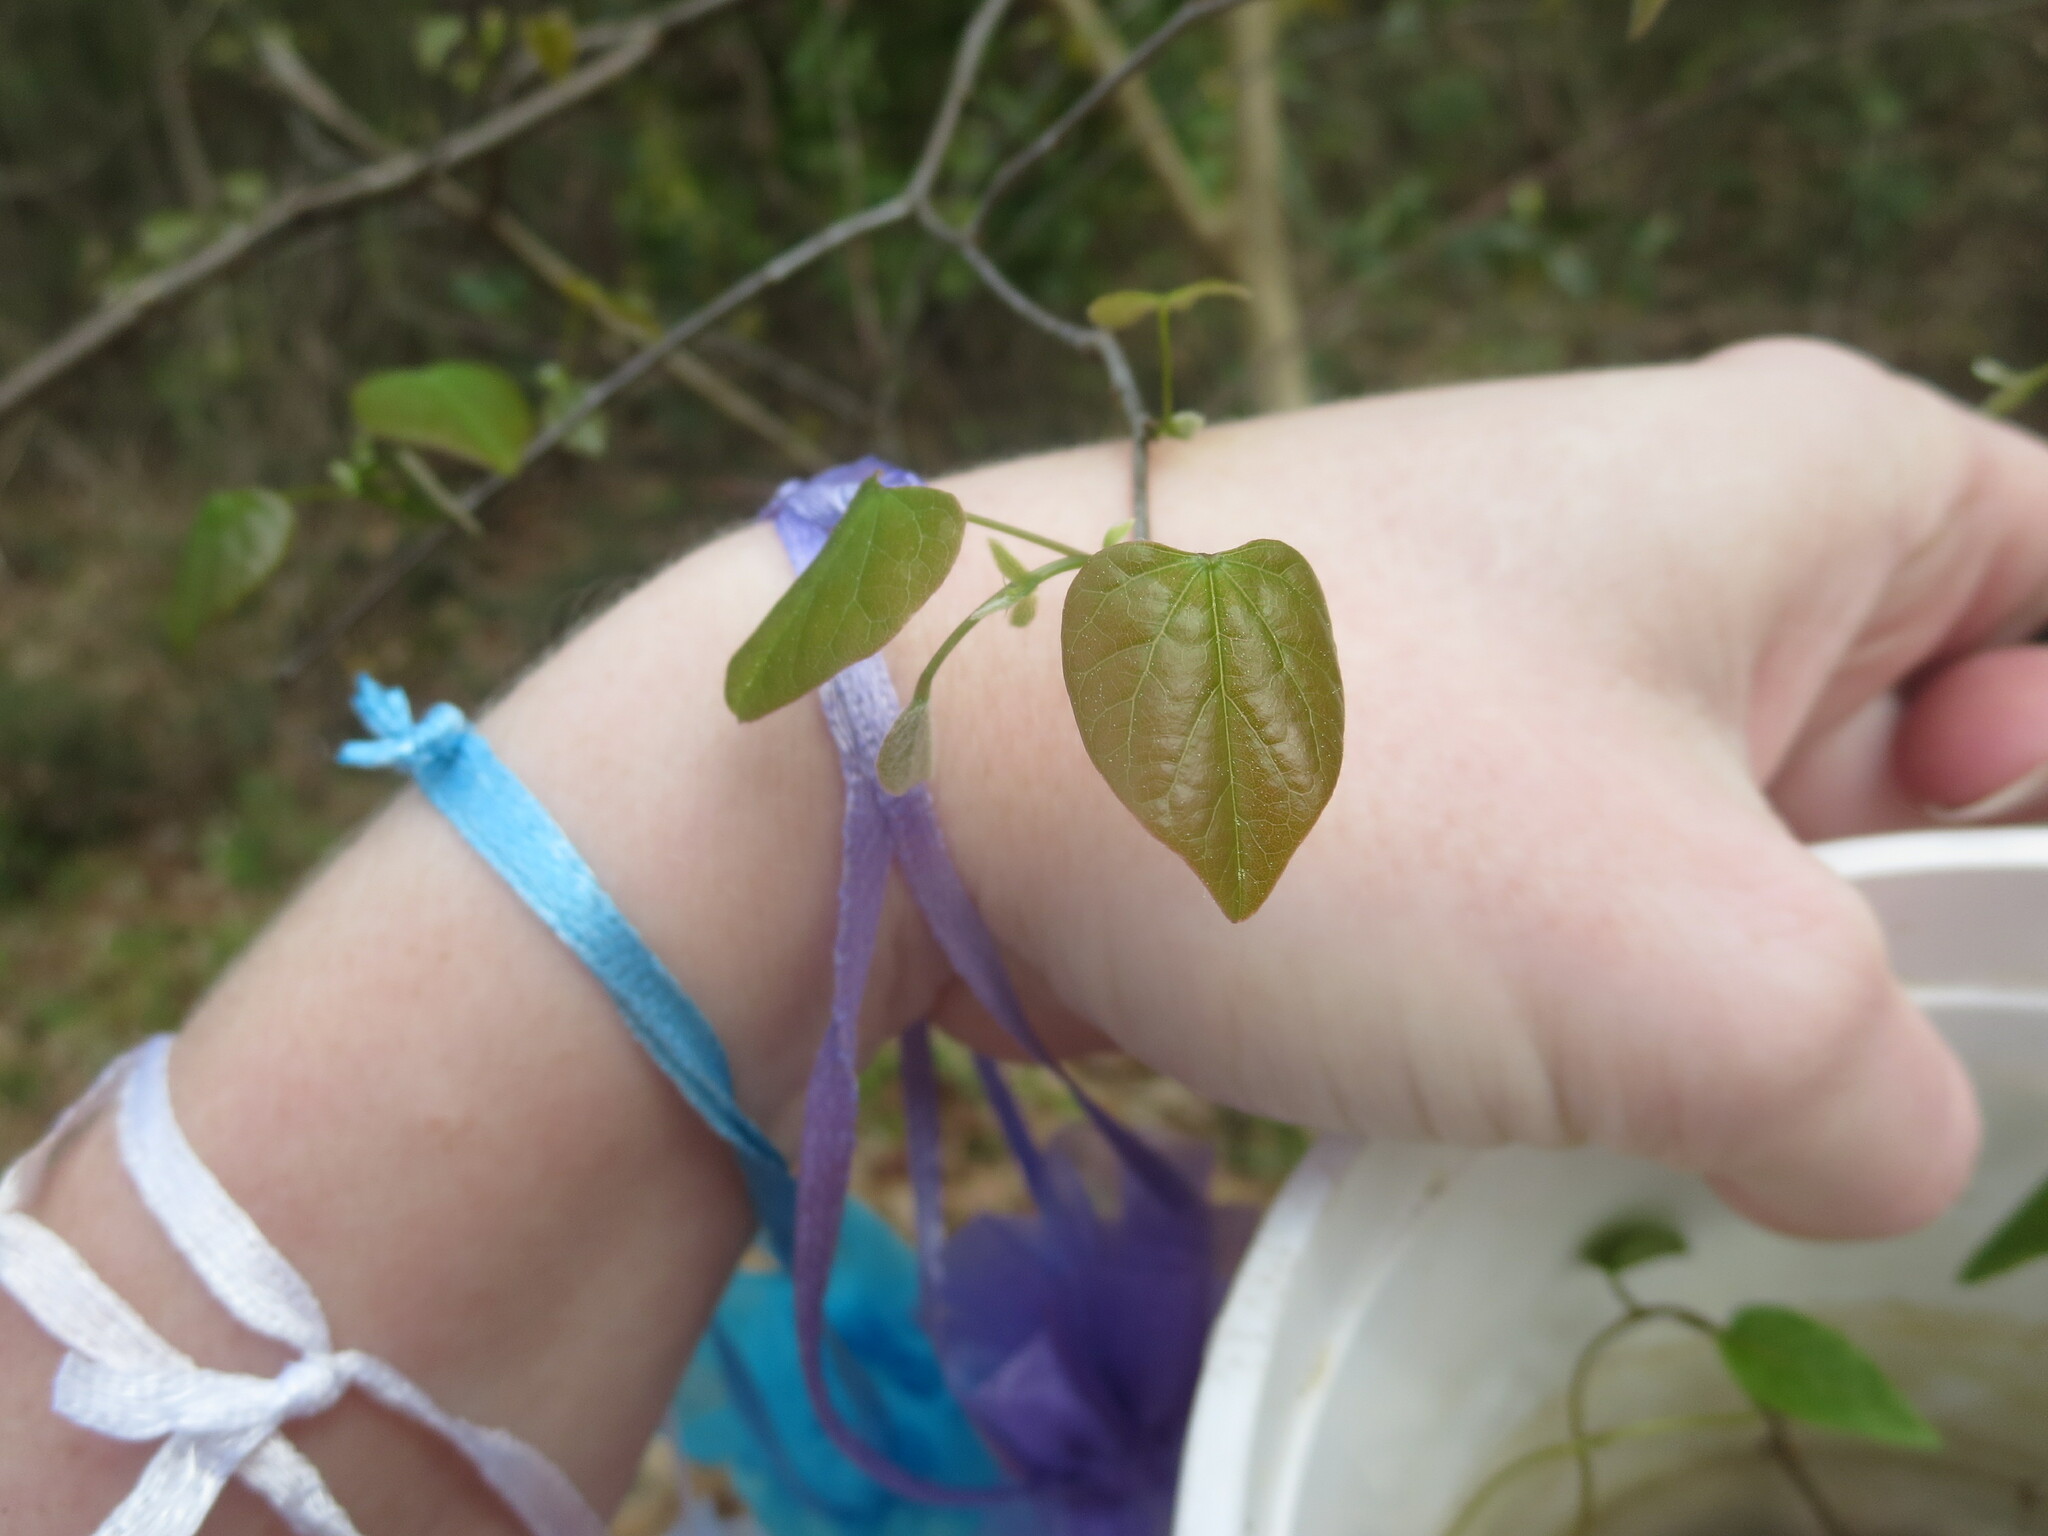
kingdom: Plantae
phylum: Tracheophyta
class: Magnoliopsida
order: Fabales
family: Fabaceae
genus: Cercis
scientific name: Cercis canadensis
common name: Eastern redbud
